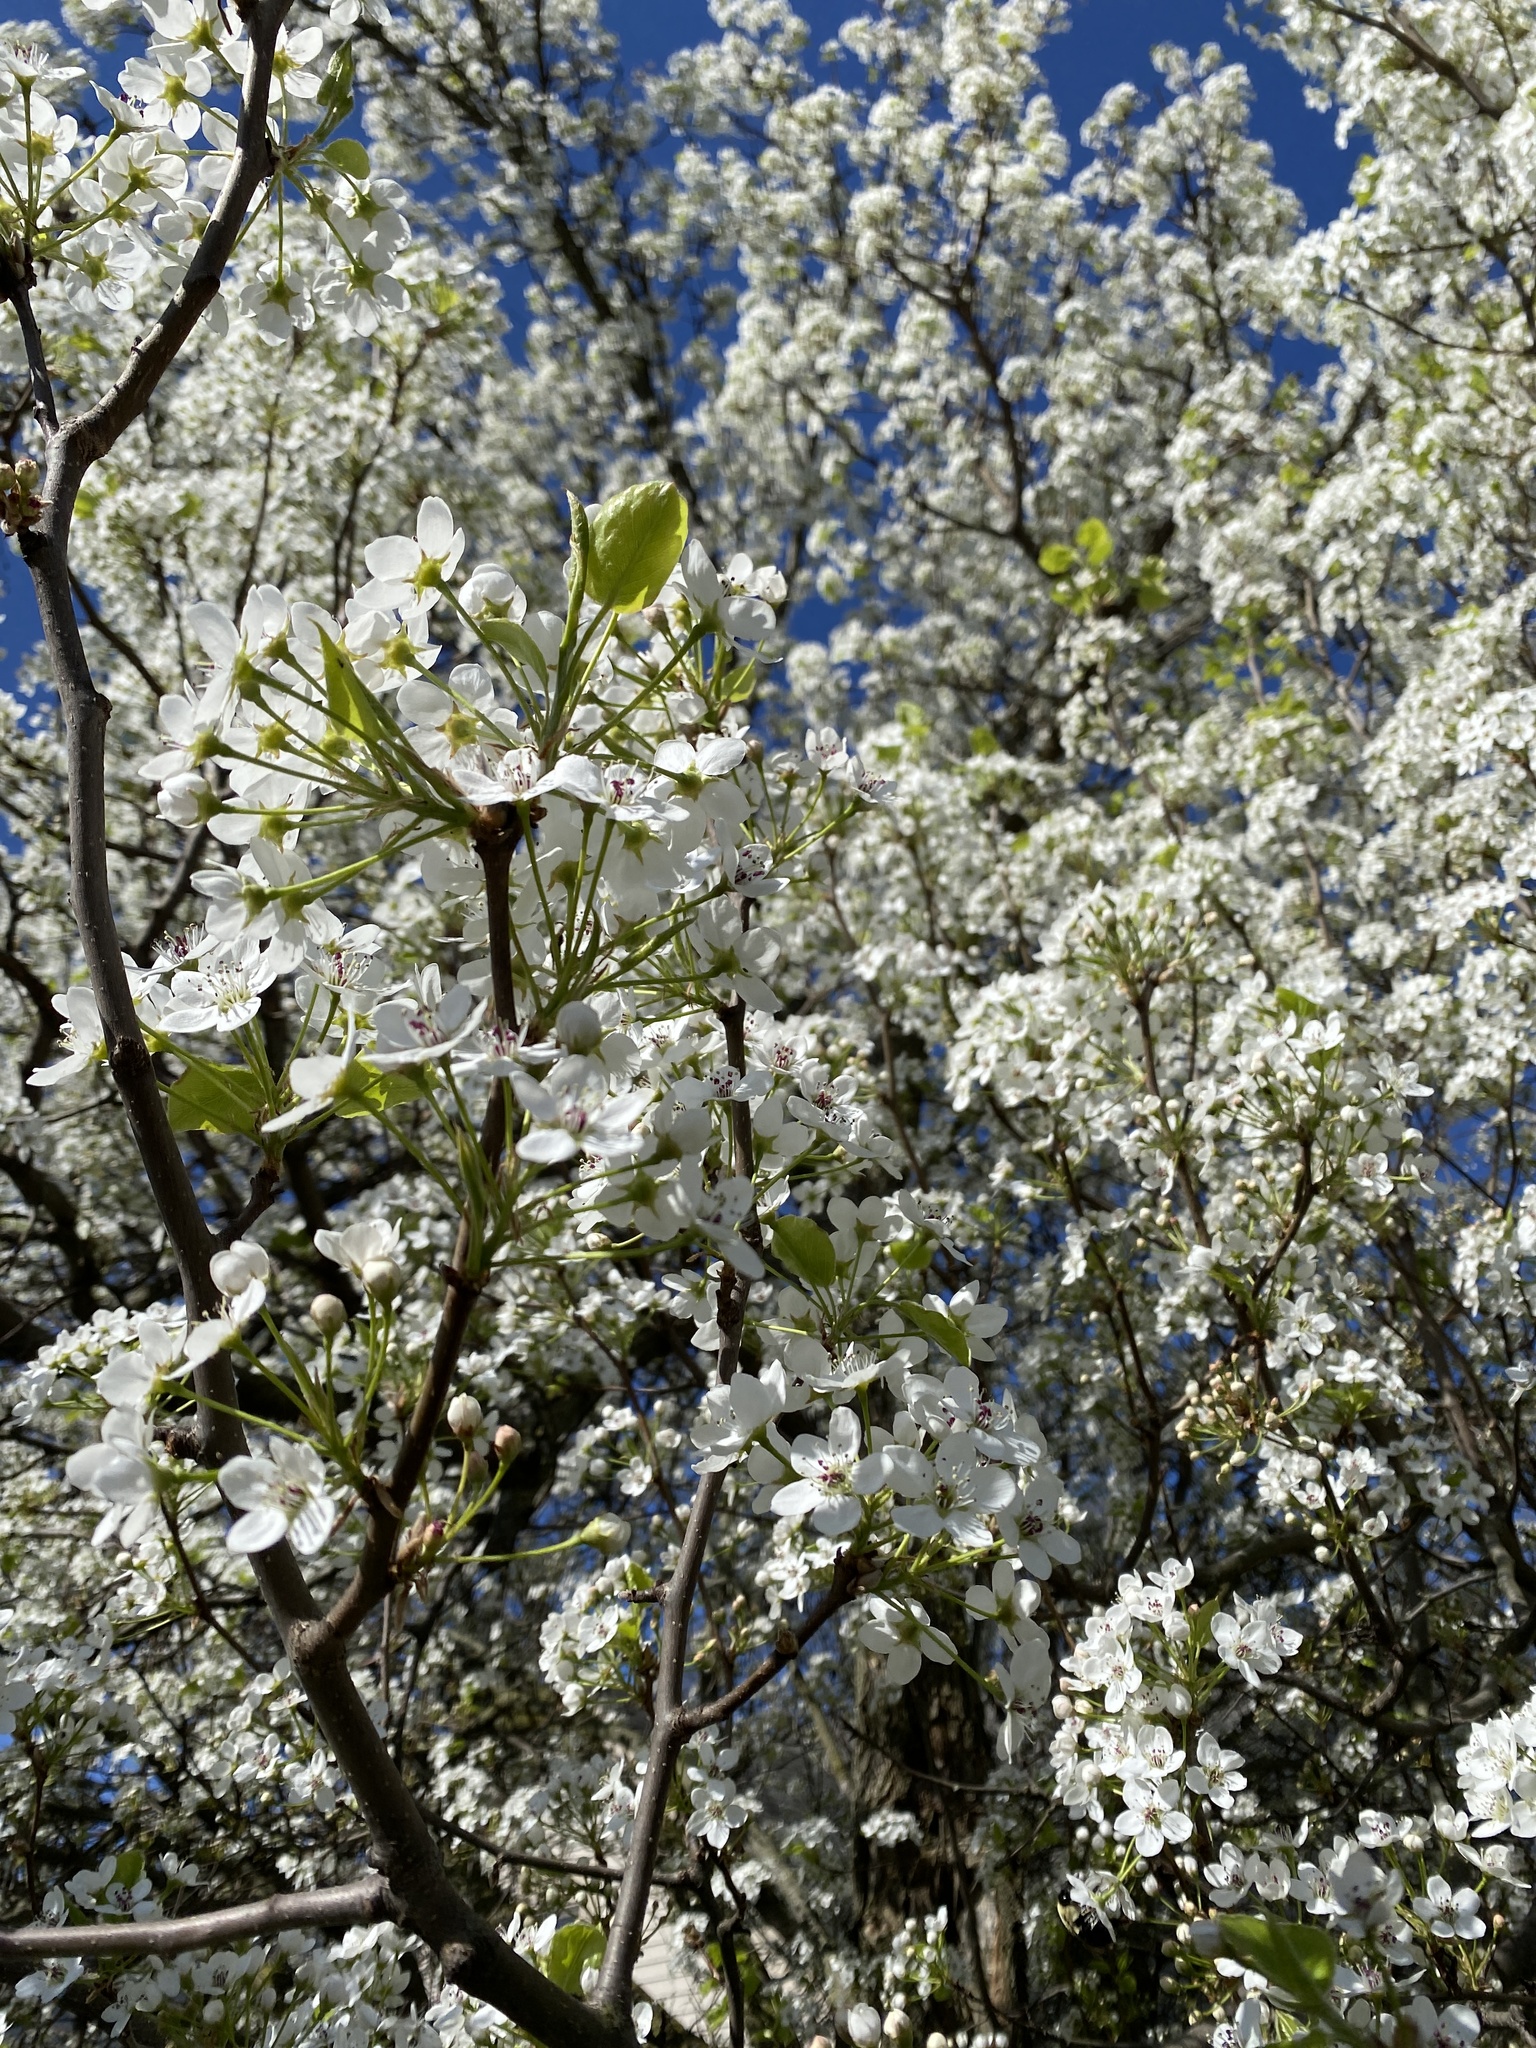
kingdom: Plantae
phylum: Tracheophyta
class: Magnoliopsida
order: Rosales
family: Rosaceae
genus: Pyrus
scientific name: Pyrus calleryana
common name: Callery pear
